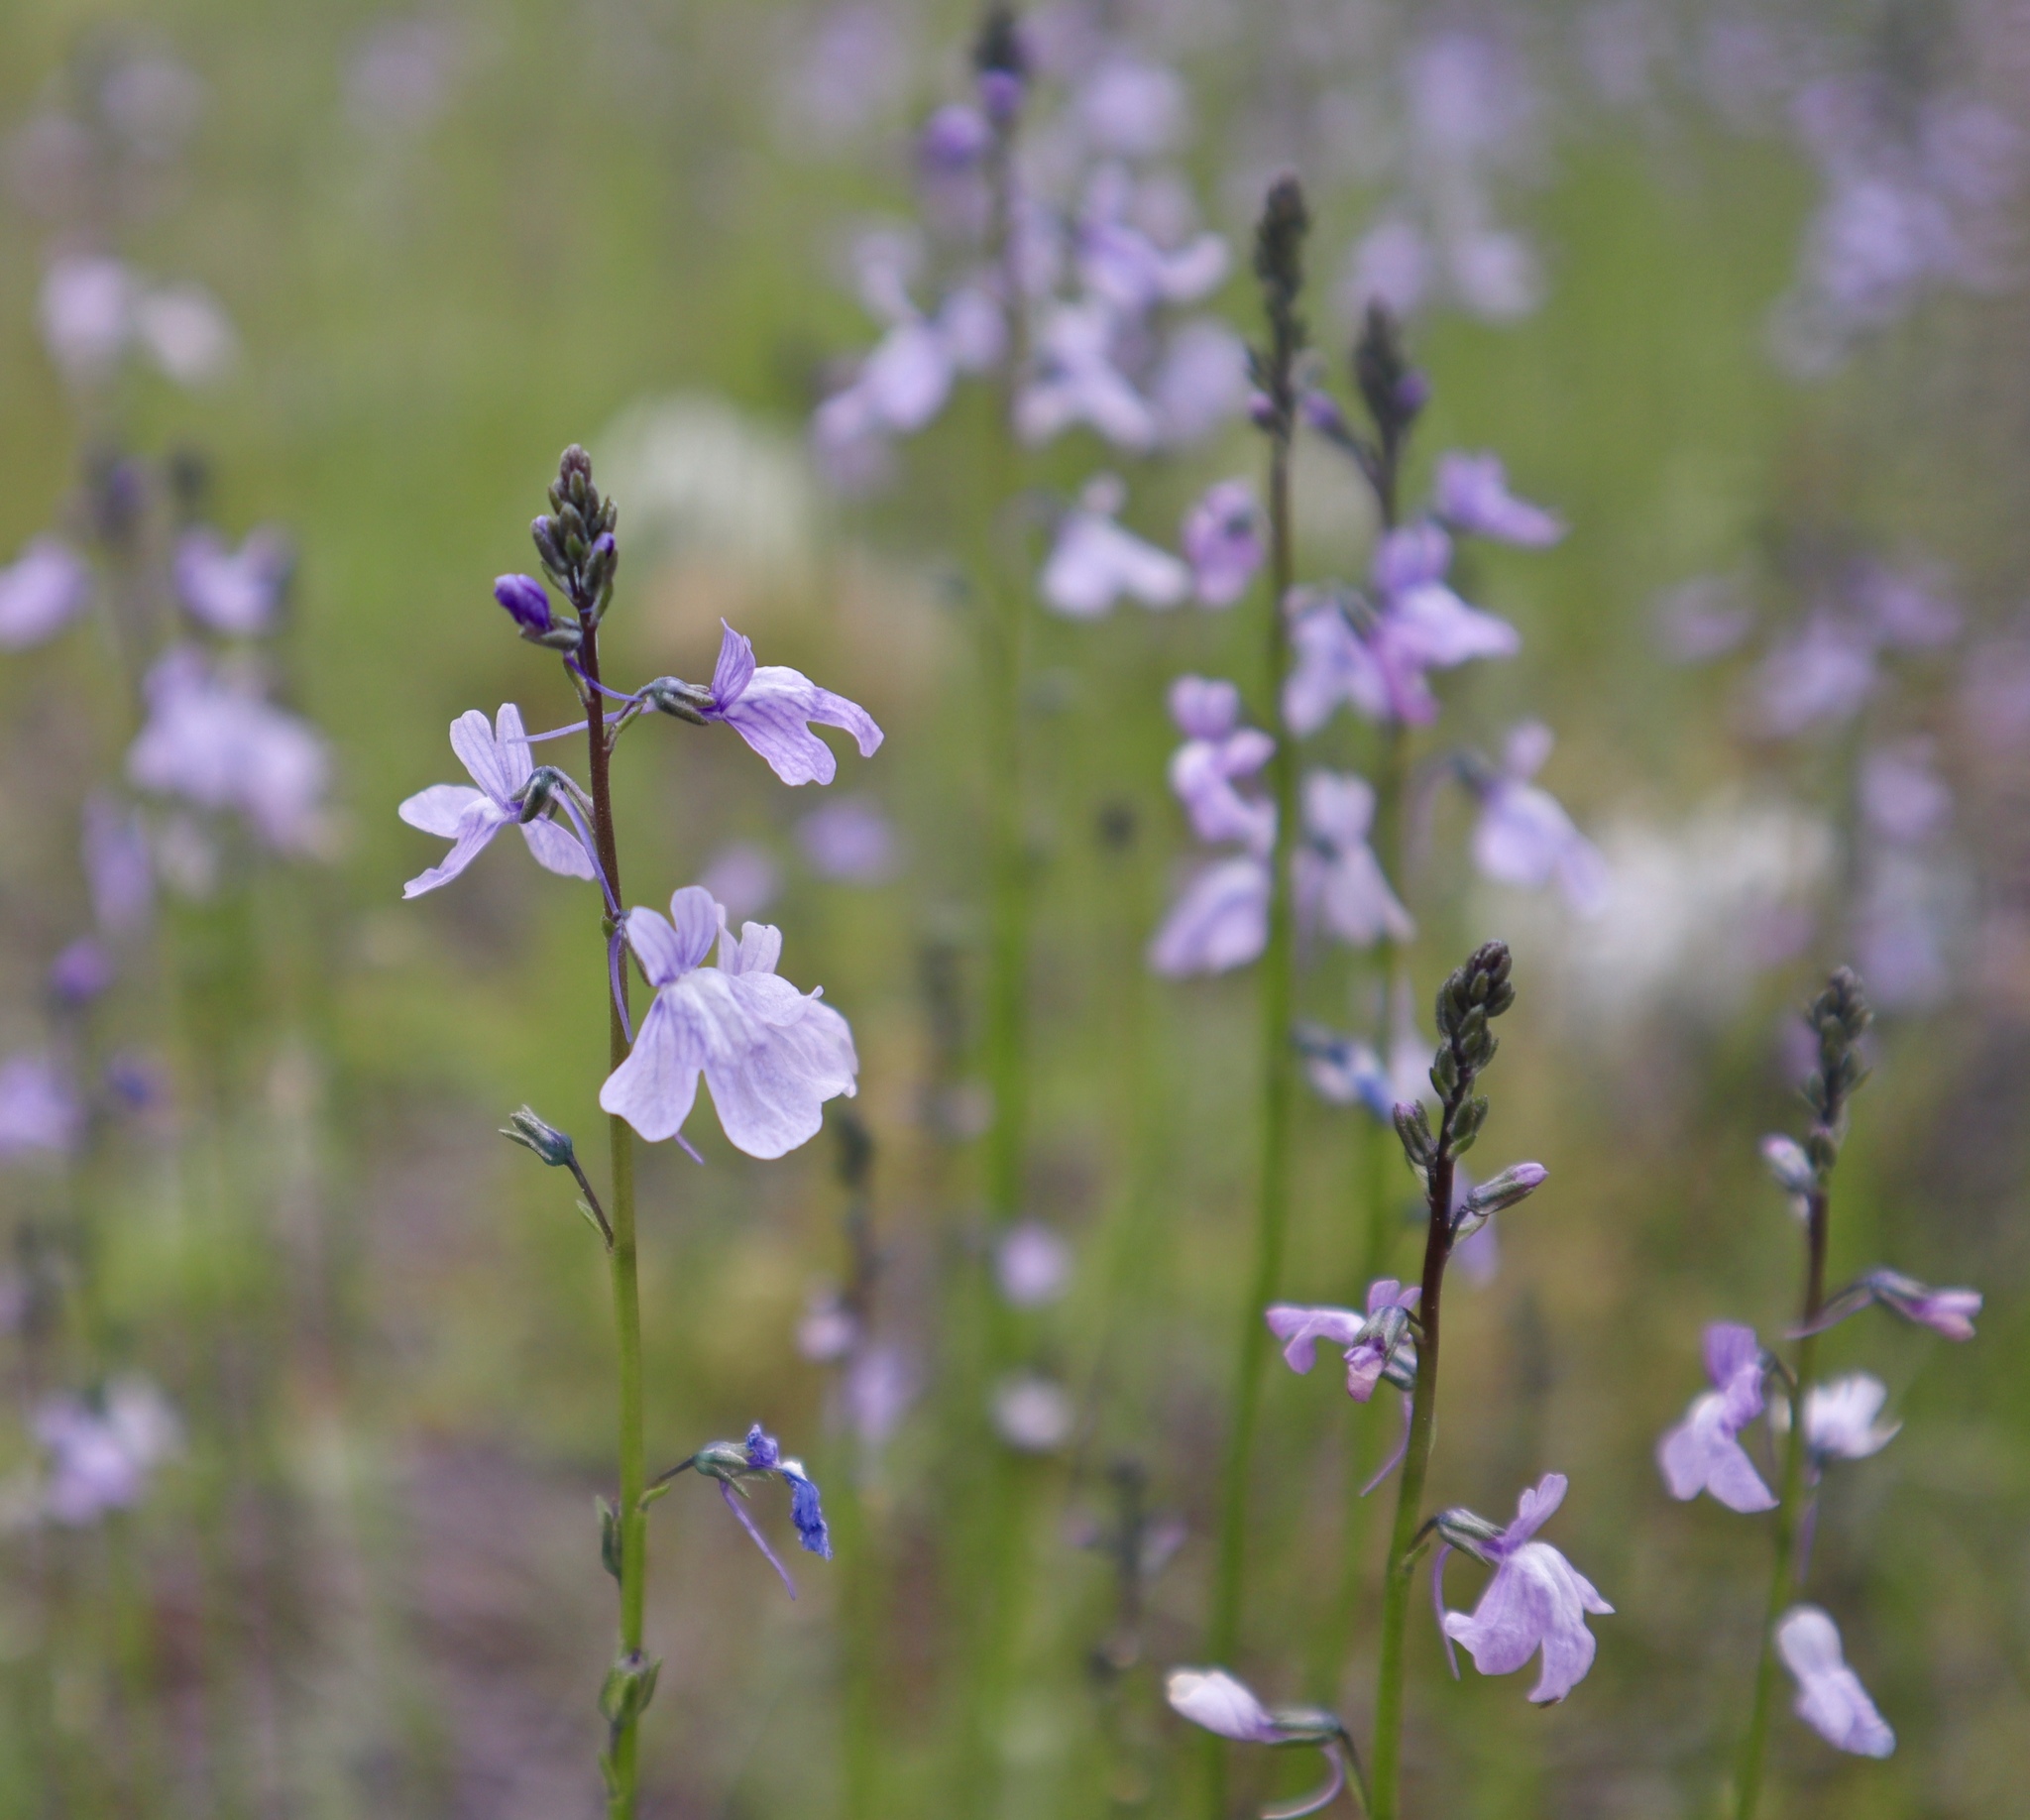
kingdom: Plantae
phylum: Tracheophyta
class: Magnoliopsida
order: Lamiales
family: Plantaginaceae
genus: Nuttallanthus
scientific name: Nuttallanthus texanus
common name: Texas toadflax
